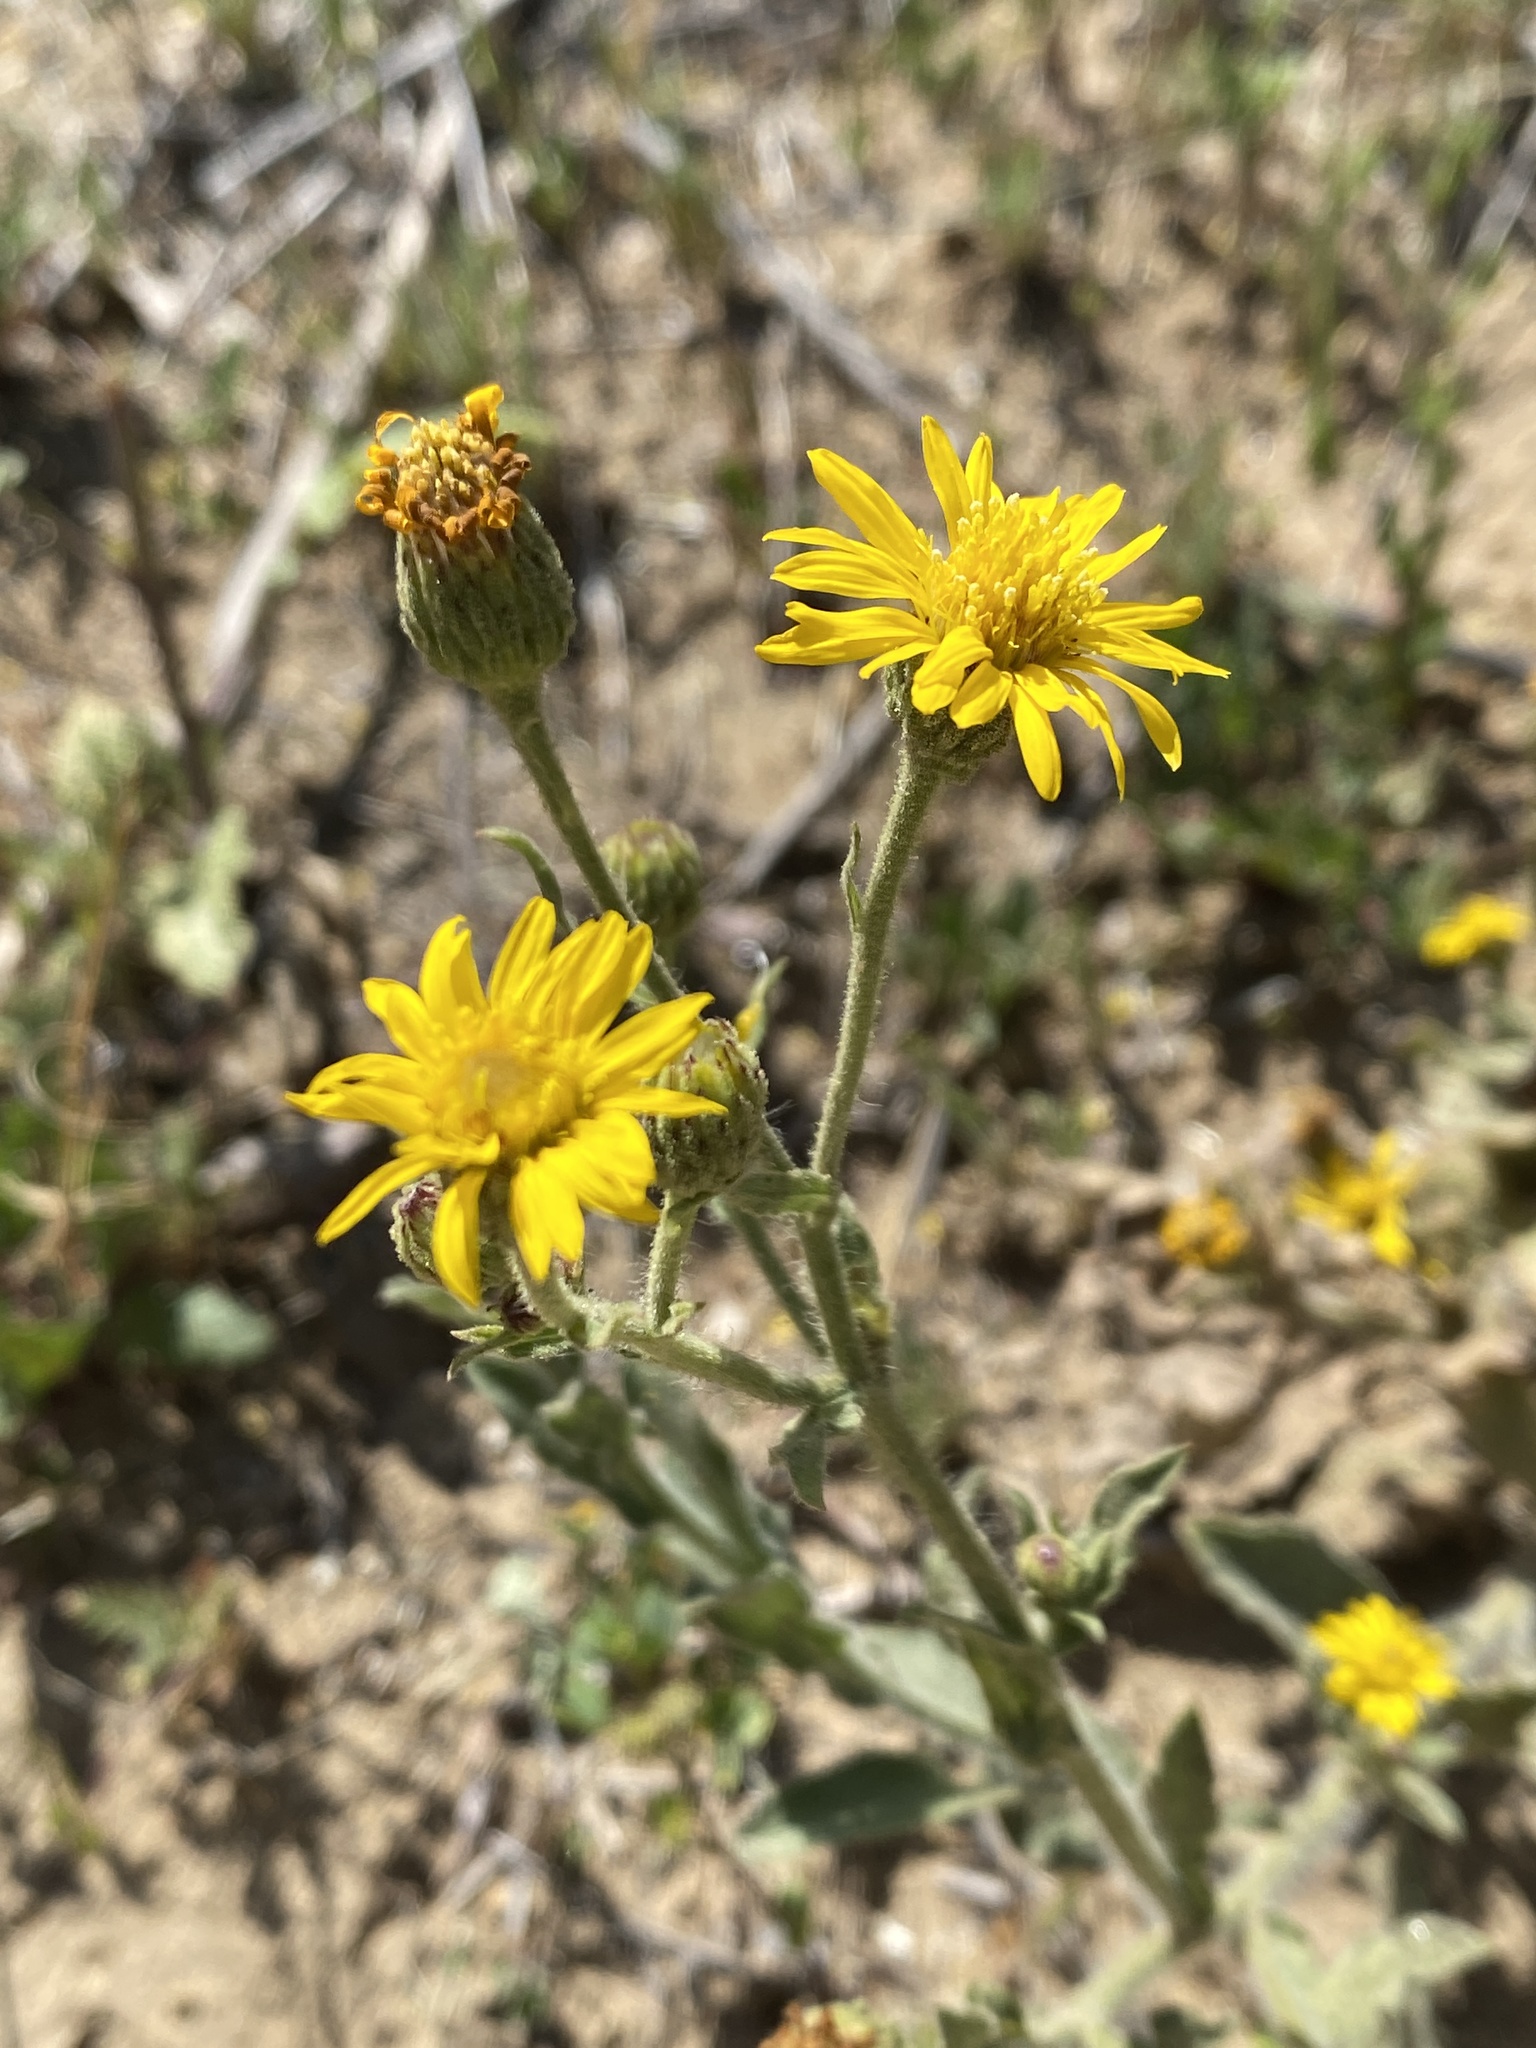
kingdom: Plantae
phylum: Tracheophyta
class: Magnoliopsida
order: Asterales
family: Asteraceae
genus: Heterotheca
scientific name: Heterotheca grandiflora
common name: Telegraphweed
